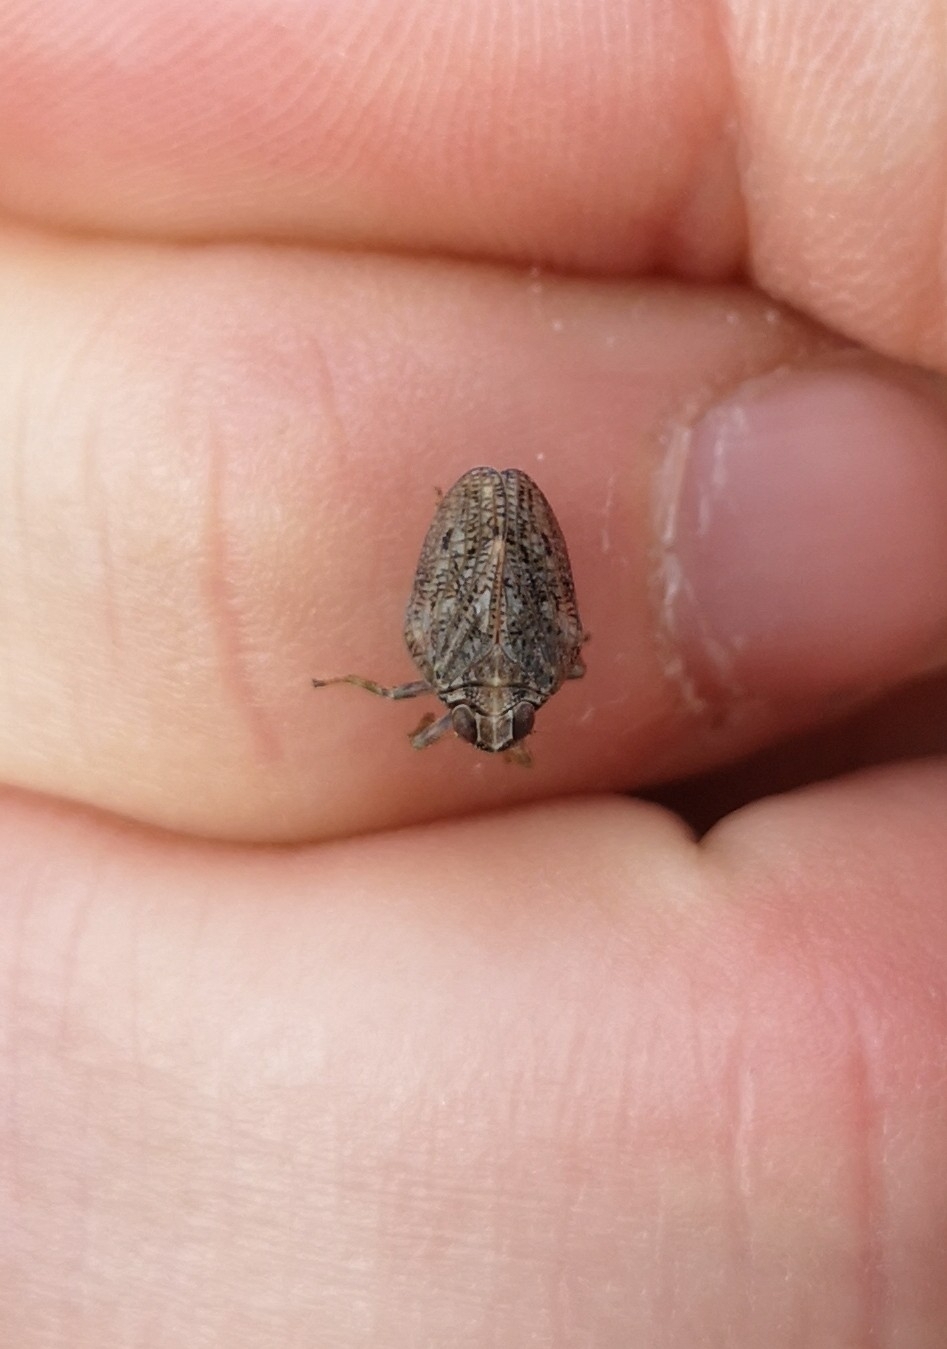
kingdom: Animalia
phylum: Arthropoda
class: Insecta
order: Hemiptera
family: Issidae
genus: Issus
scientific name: Issus coleoptratus
